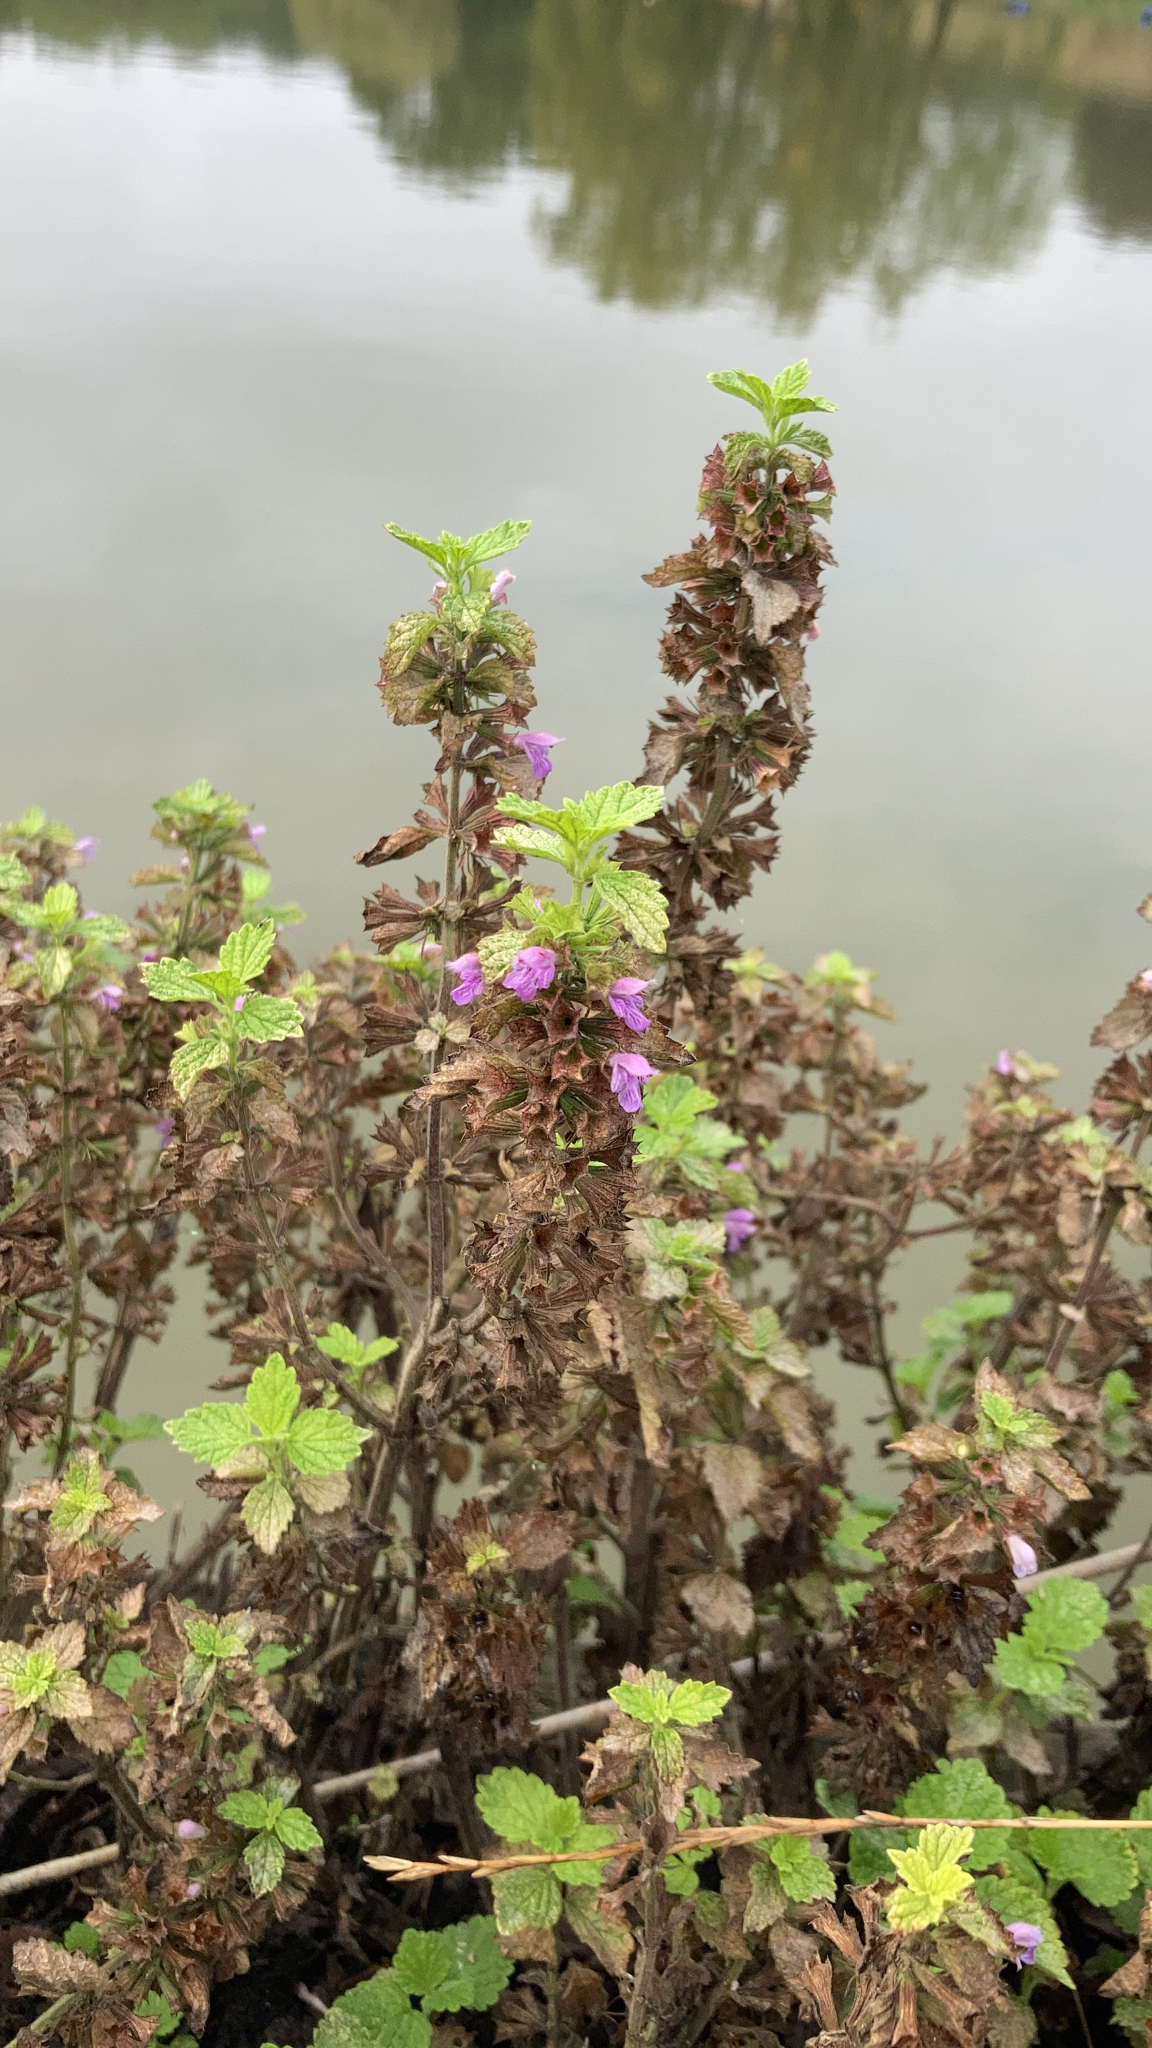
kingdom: Plantae
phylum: Tracheophyta
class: Magnoliopsida
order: Lamiales
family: Lamiaceae
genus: Ballota
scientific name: Ballota nigra
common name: Black horehound
